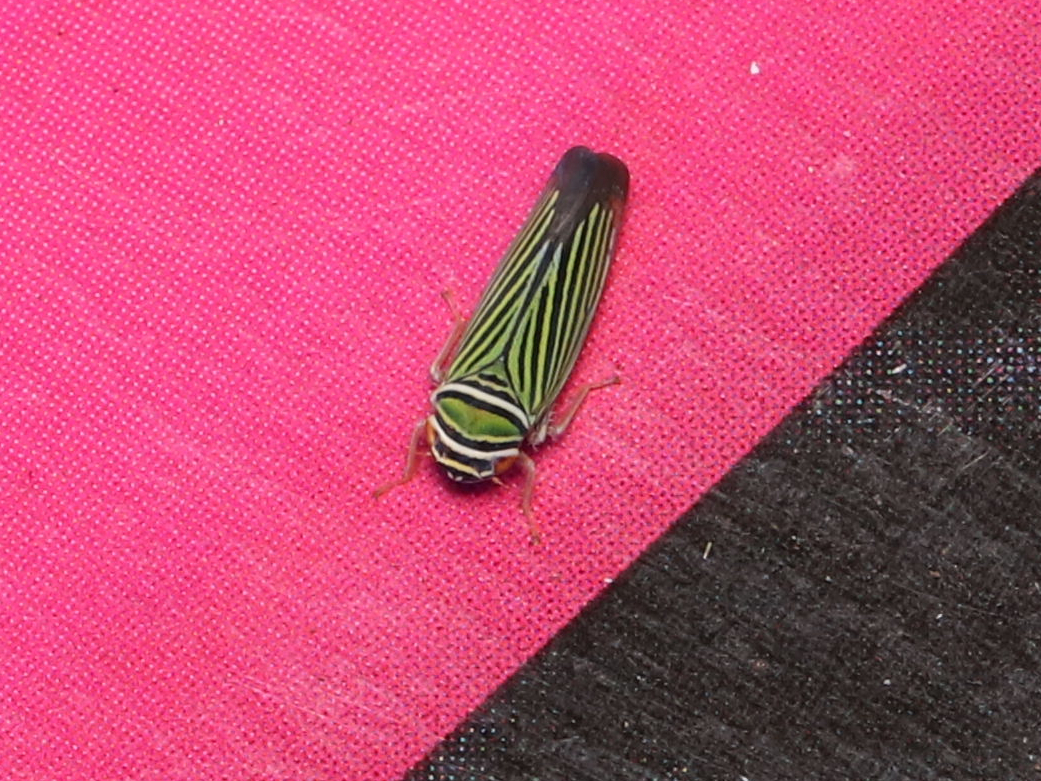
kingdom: Animalia
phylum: Arthropoda
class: Insecta
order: Hemiptera
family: Cicadellidae
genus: Tylozygus
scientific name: Tylozygus bifidus
